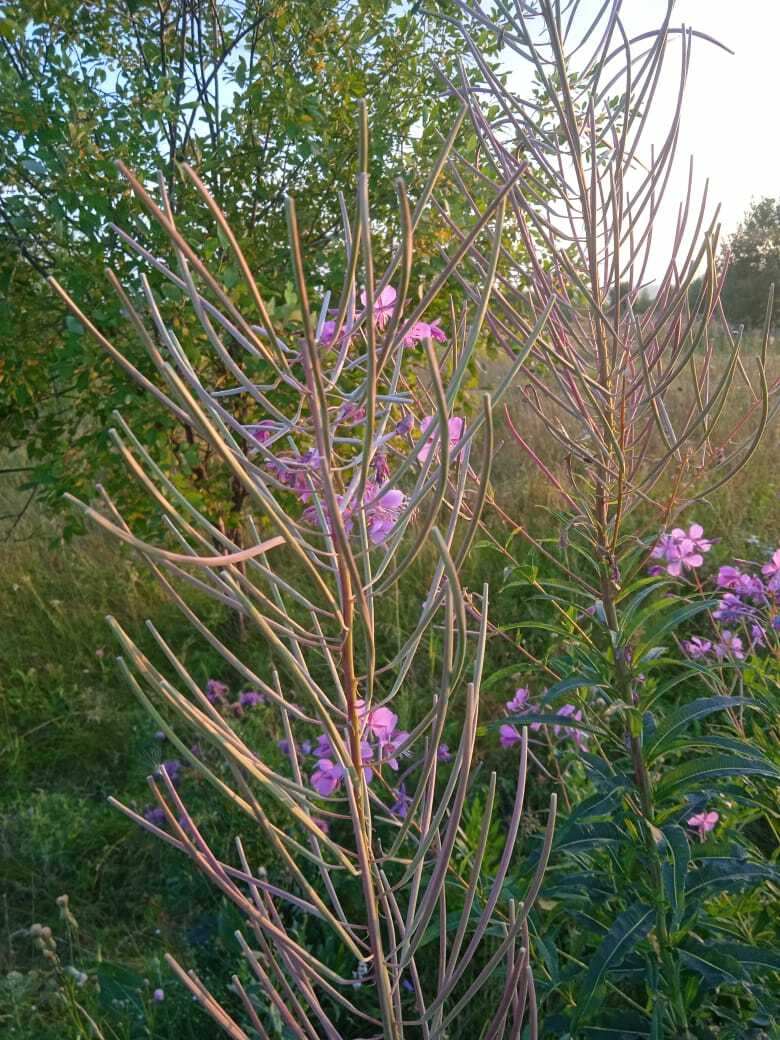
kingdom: Plantae
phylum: Tracheophyta
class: Magnoliopsida
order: Myrtales
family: Onagraceae
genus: Chamaenerion
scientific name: Chamaenerion angustifolium
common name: Fireweed
